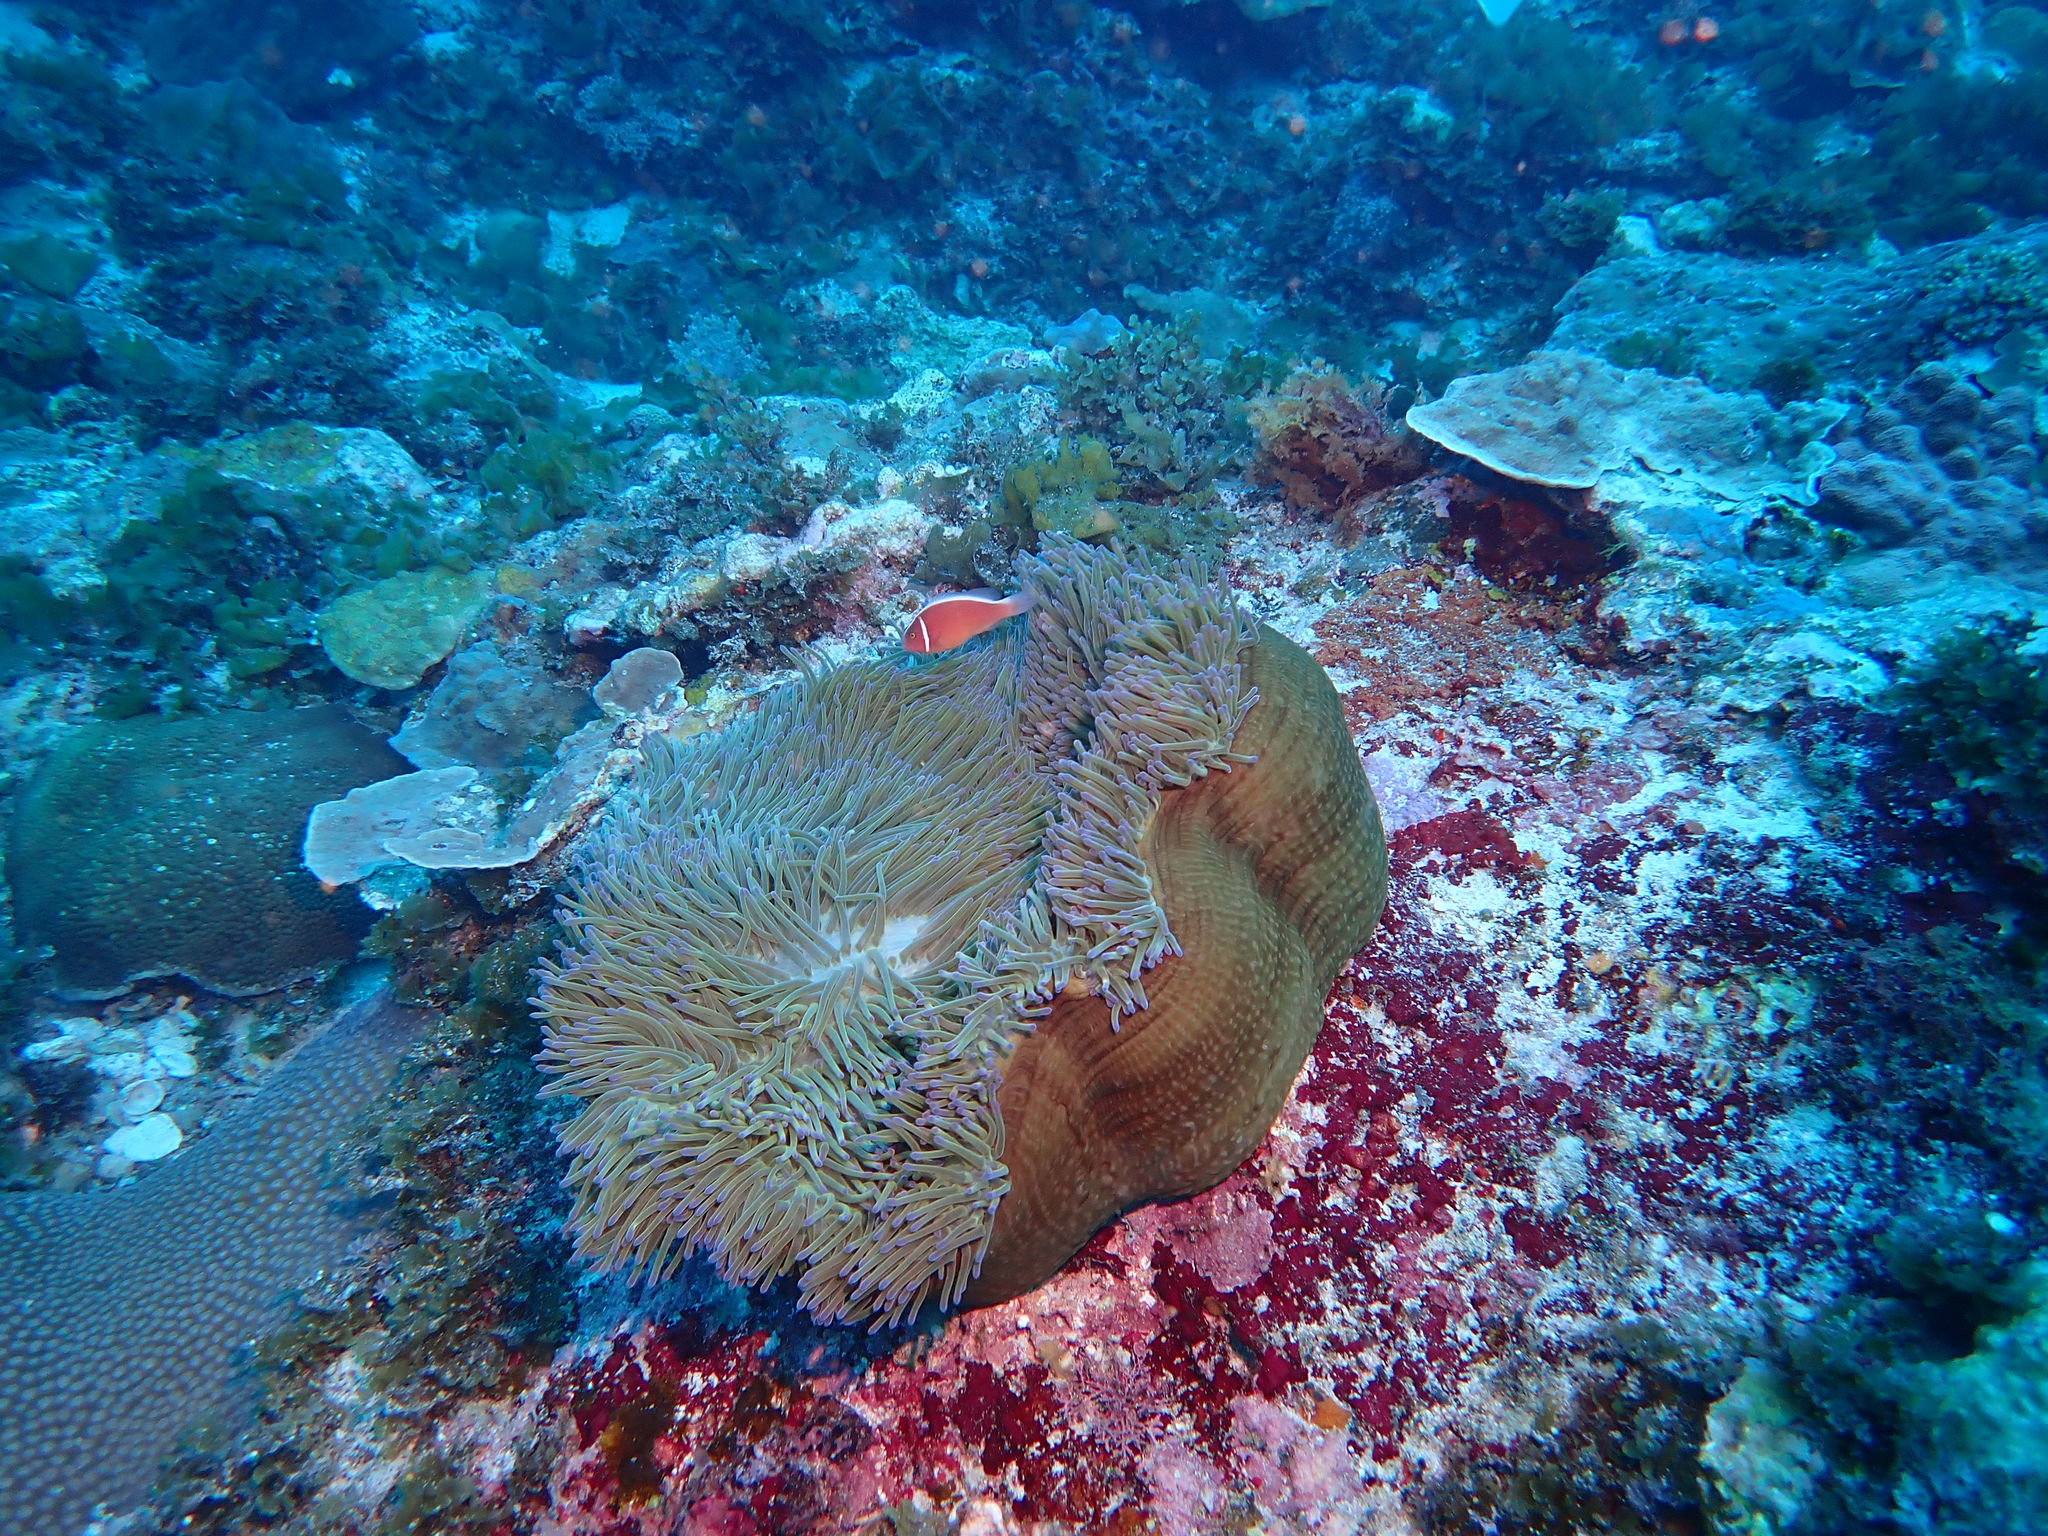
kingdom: Animalia
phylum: Chordata
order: Perciformes
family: Pomacentridae
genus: Amphiprion
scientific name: Amphiprion perideraion
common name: Pink anemonefish
